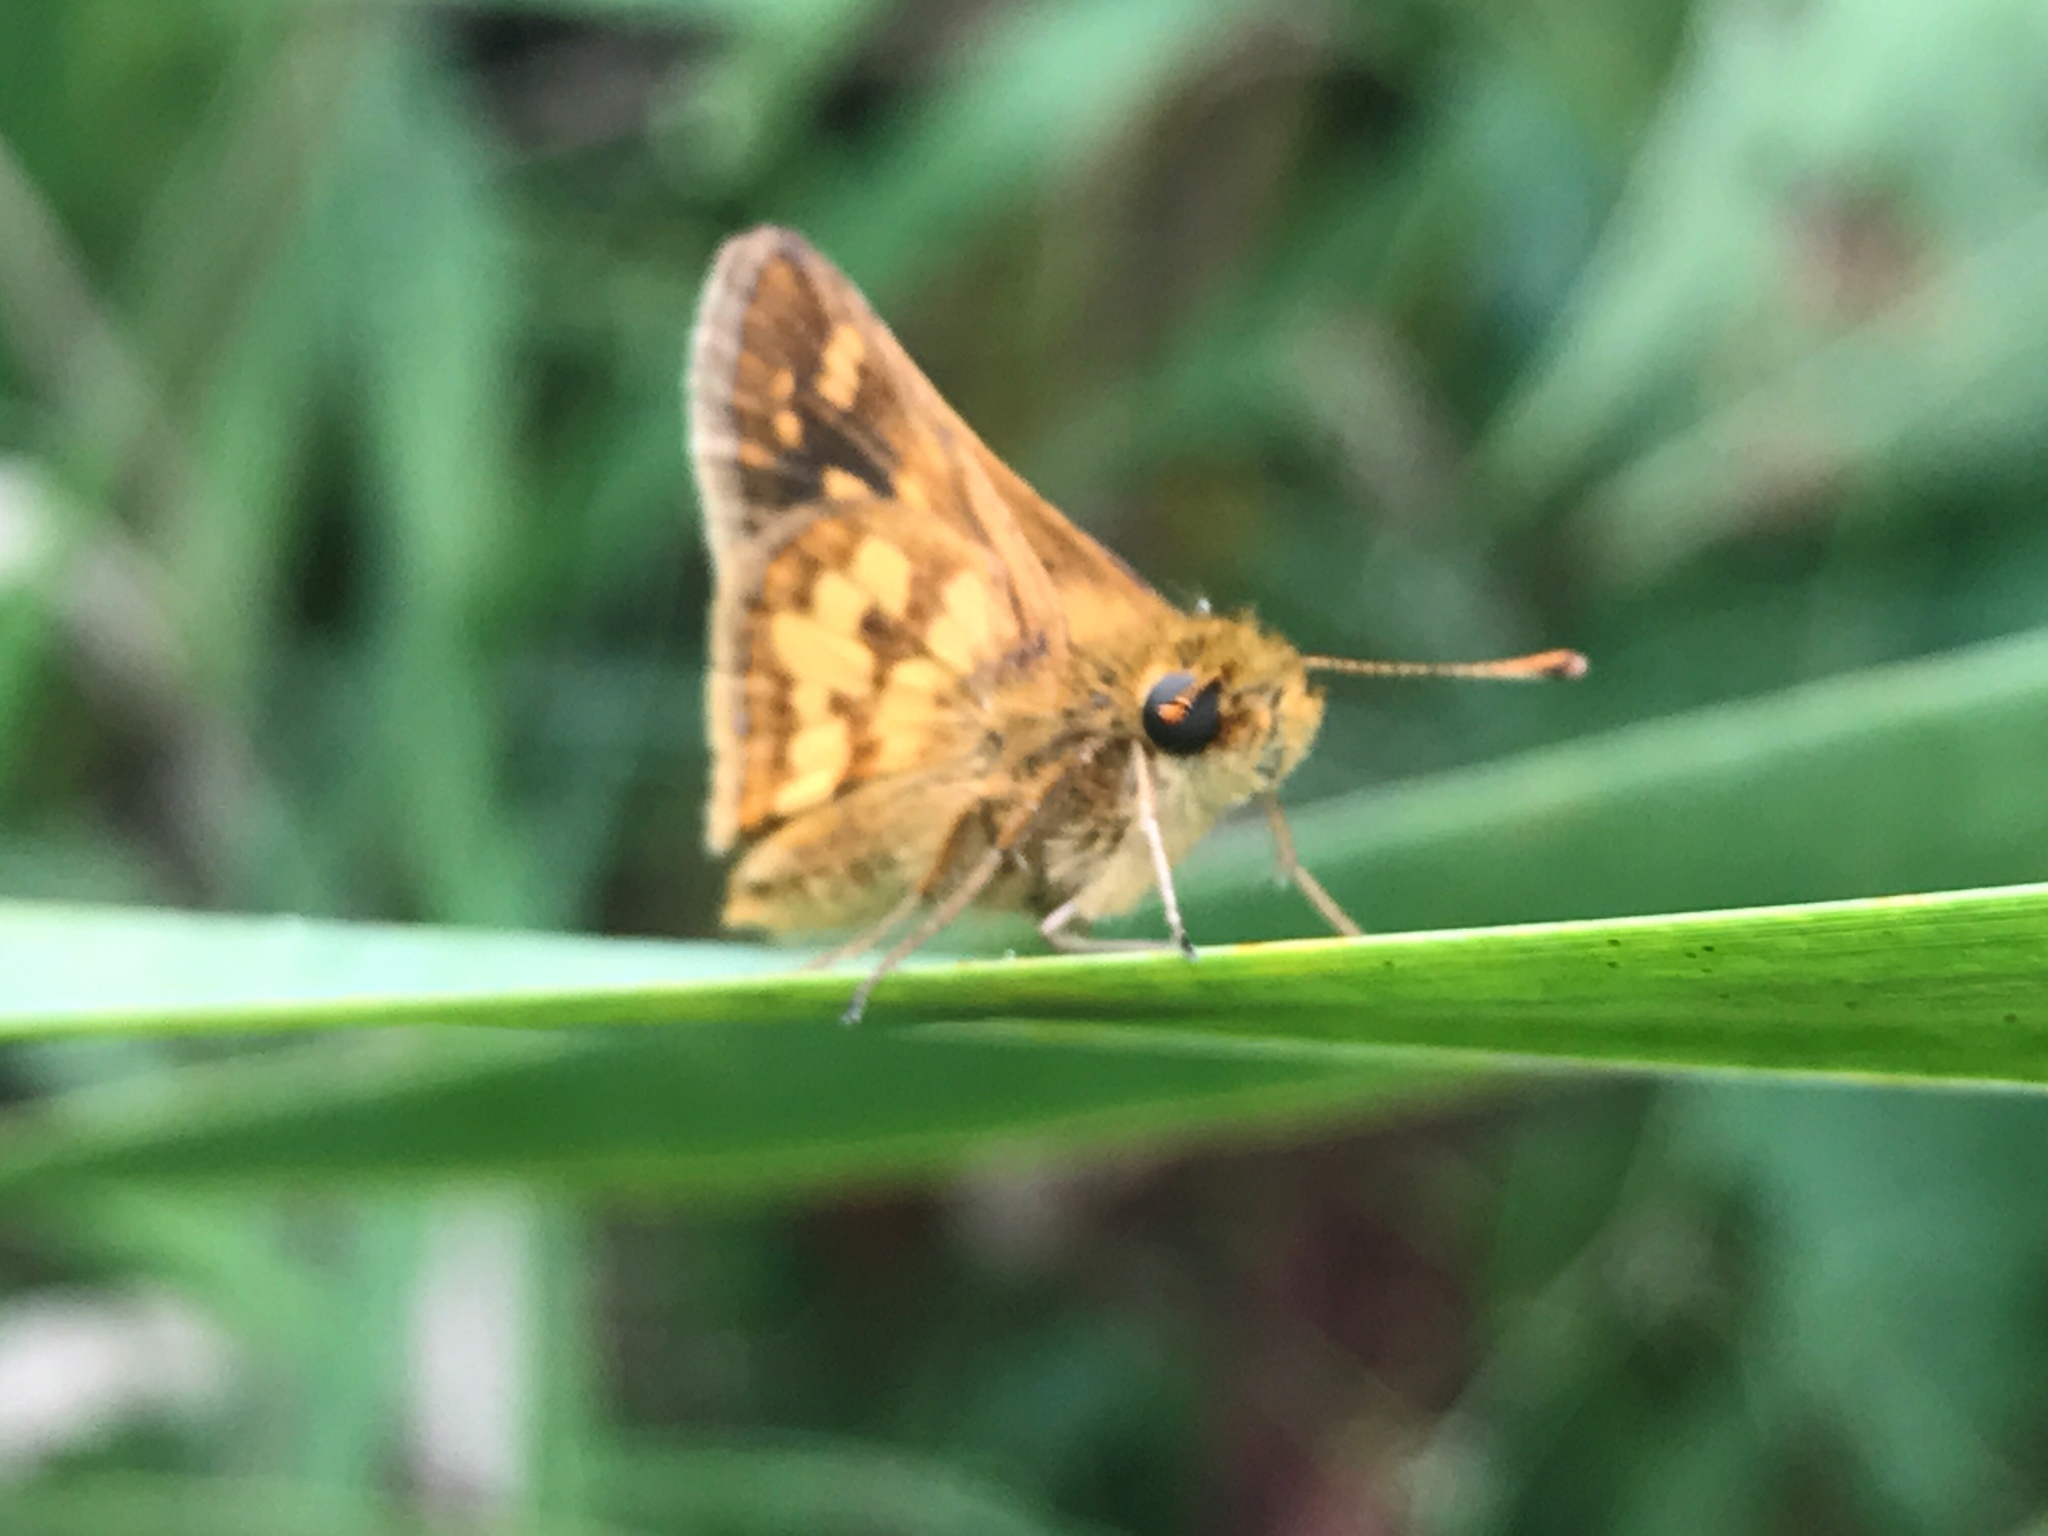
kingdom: Animalia
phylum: Arthropoda
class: Insecta
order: Lepidoptera
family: Hesperiidae
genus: Polites
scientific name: Polites coras
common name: Peck's skipper
